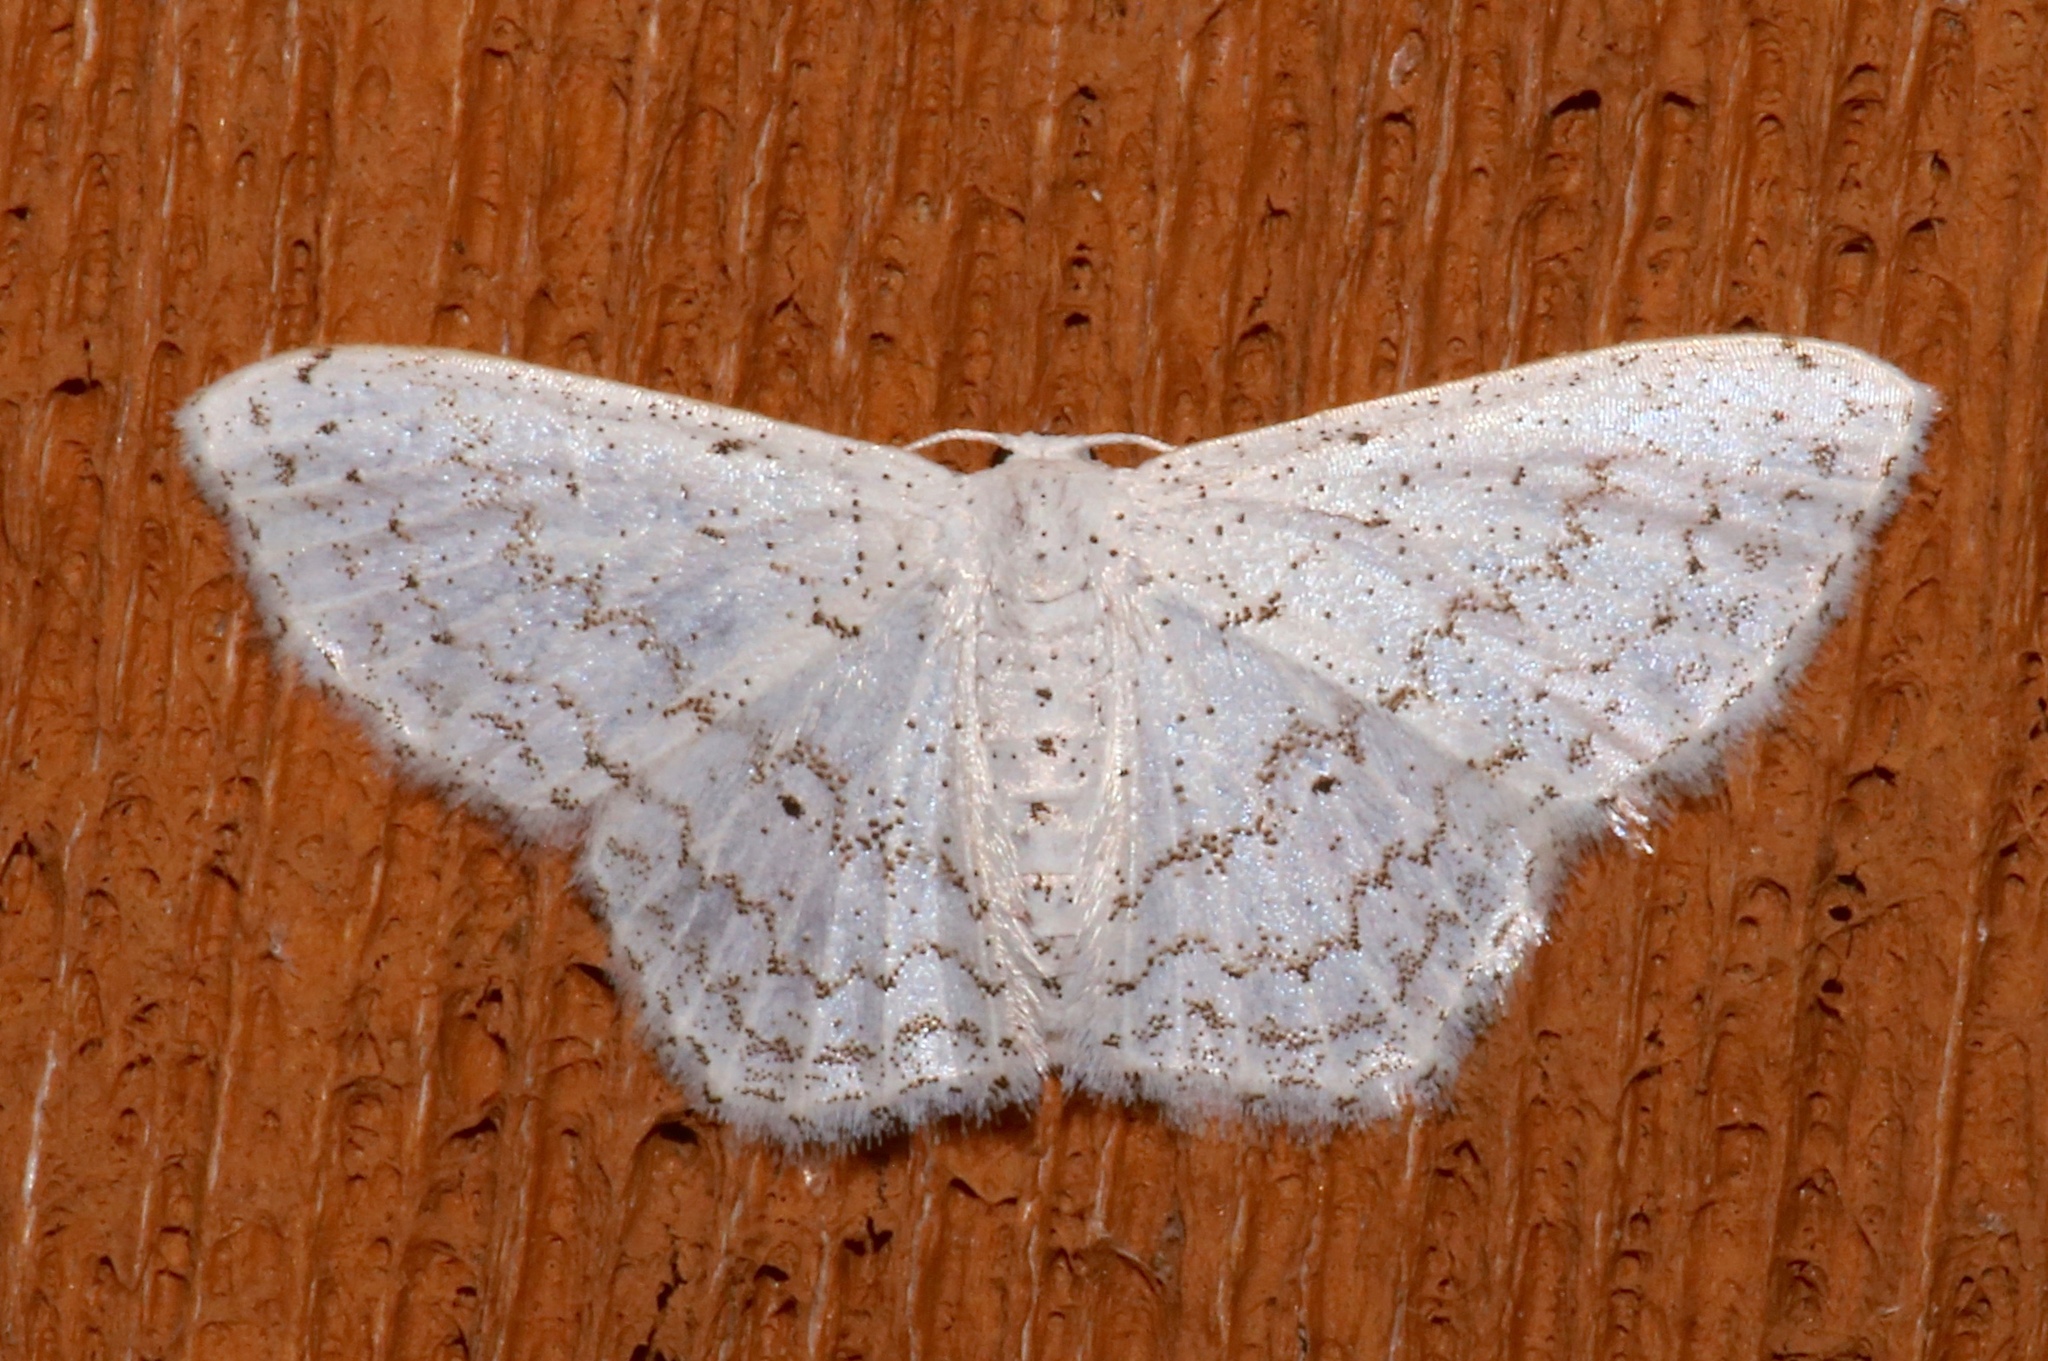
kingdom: Animalia
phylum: Arthropoda
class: Insecta
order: Lepidoptera
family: Geometridae
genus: Idaea
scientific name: Idaea tacturata
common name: Dot-lined wave
